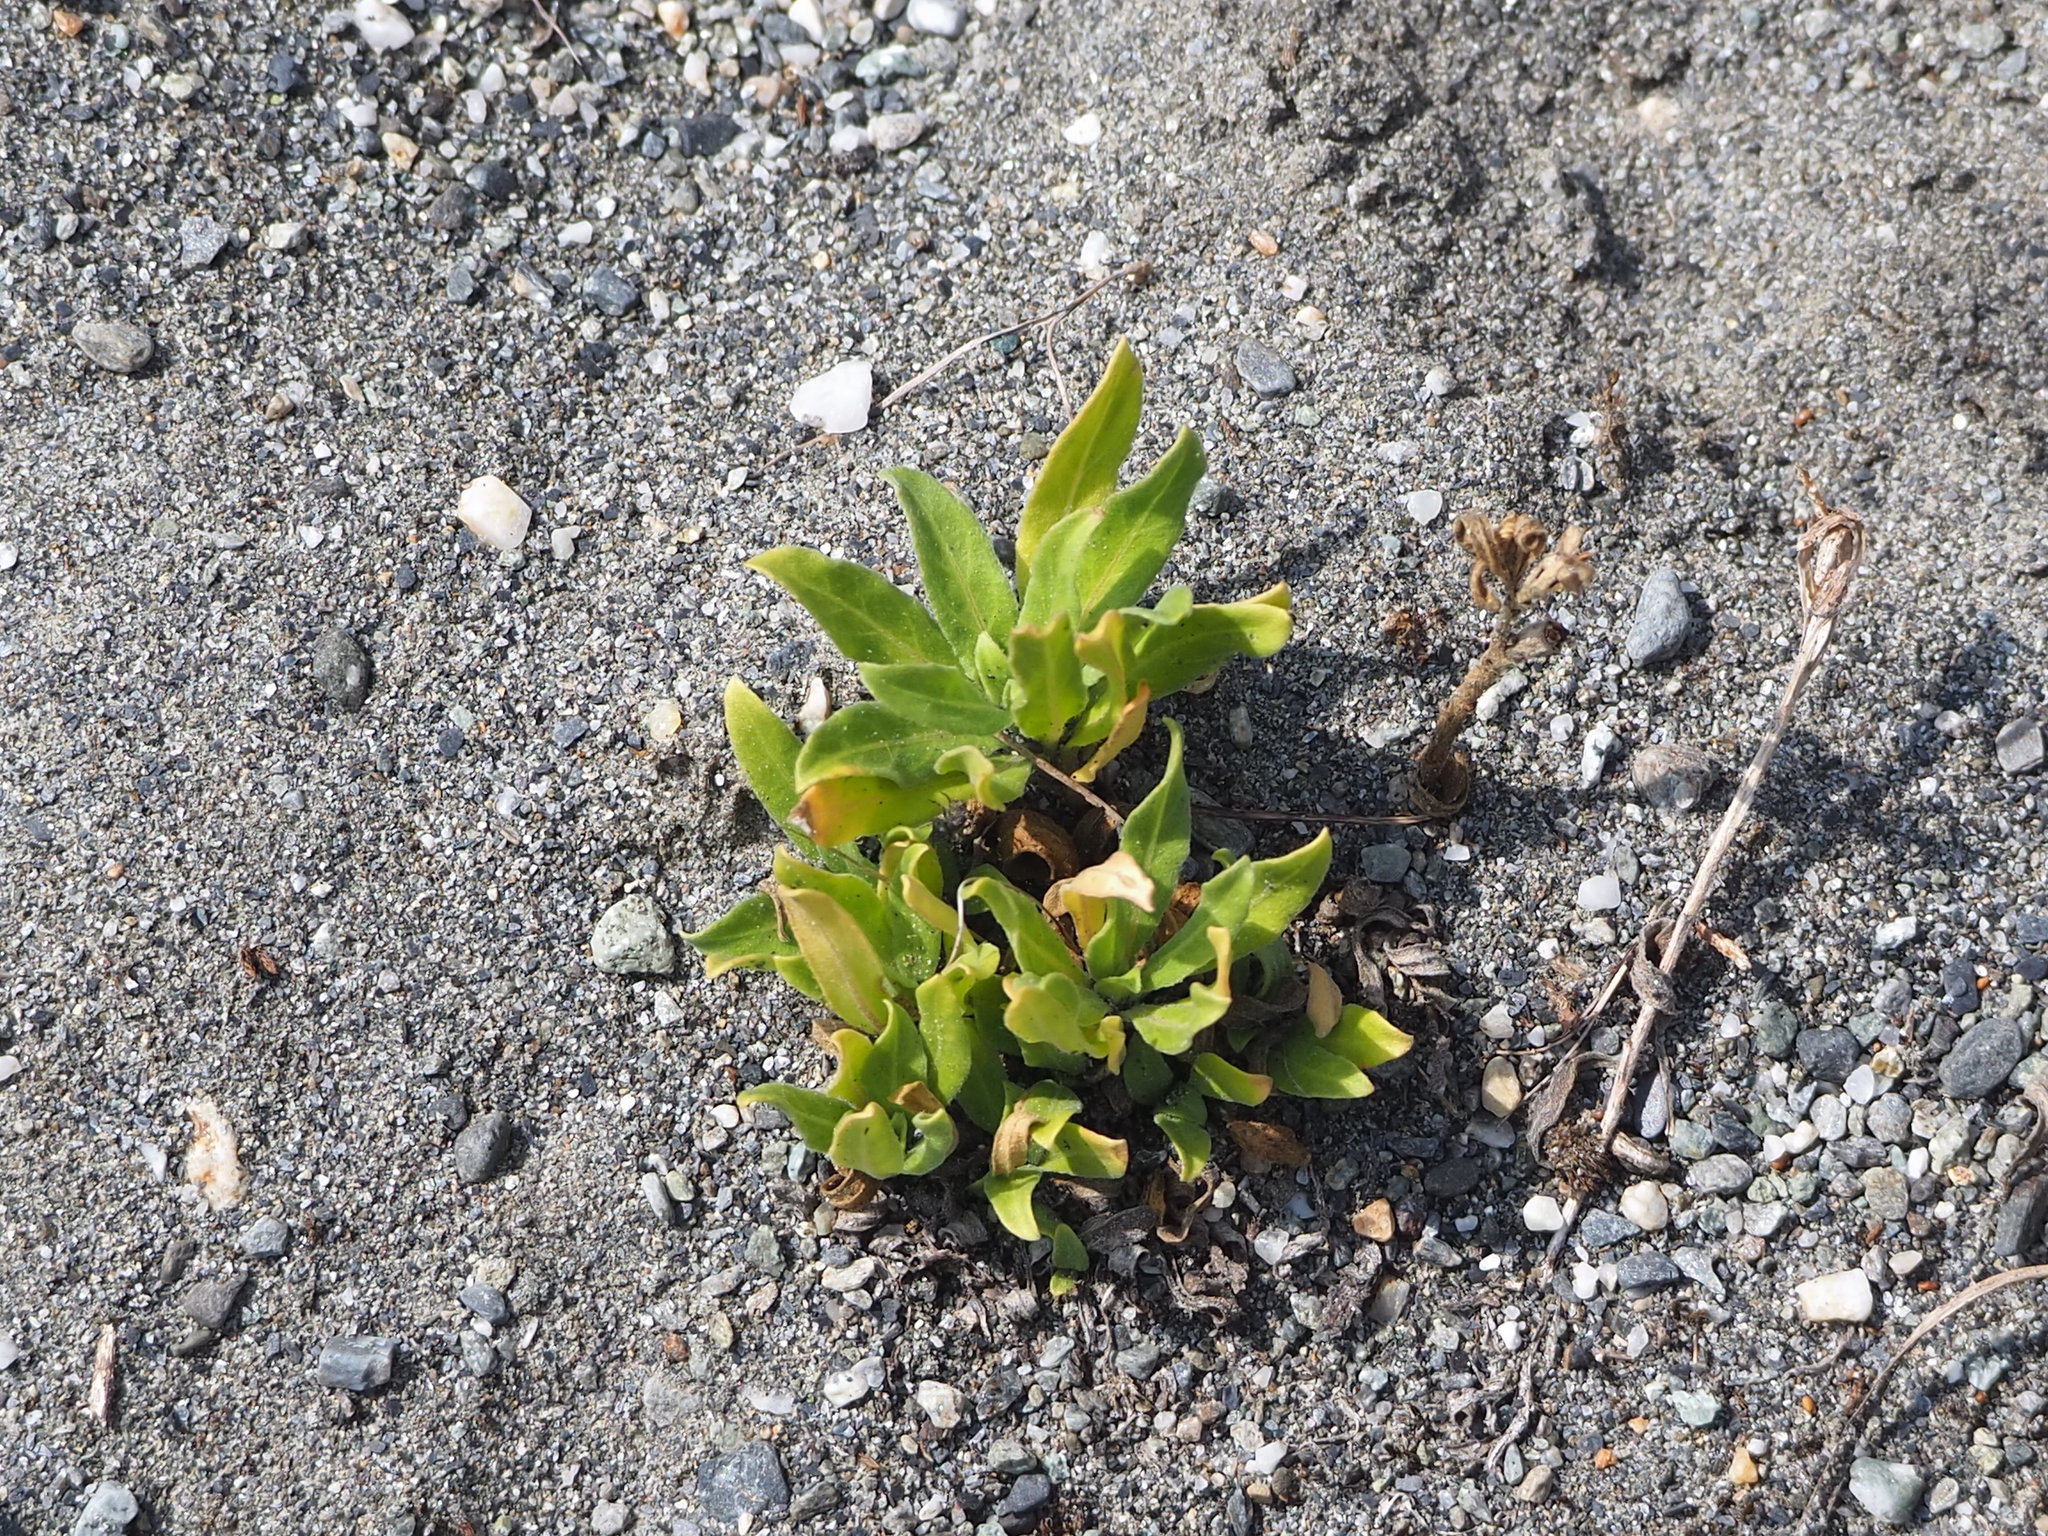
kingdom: Plantae
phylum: Tracheophyta
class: Magnoliopsida
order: Myrtales
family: Onagraceae
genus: Oenothera
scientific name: Oenothera laciniata
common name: Cut-leaved evening-primrose
